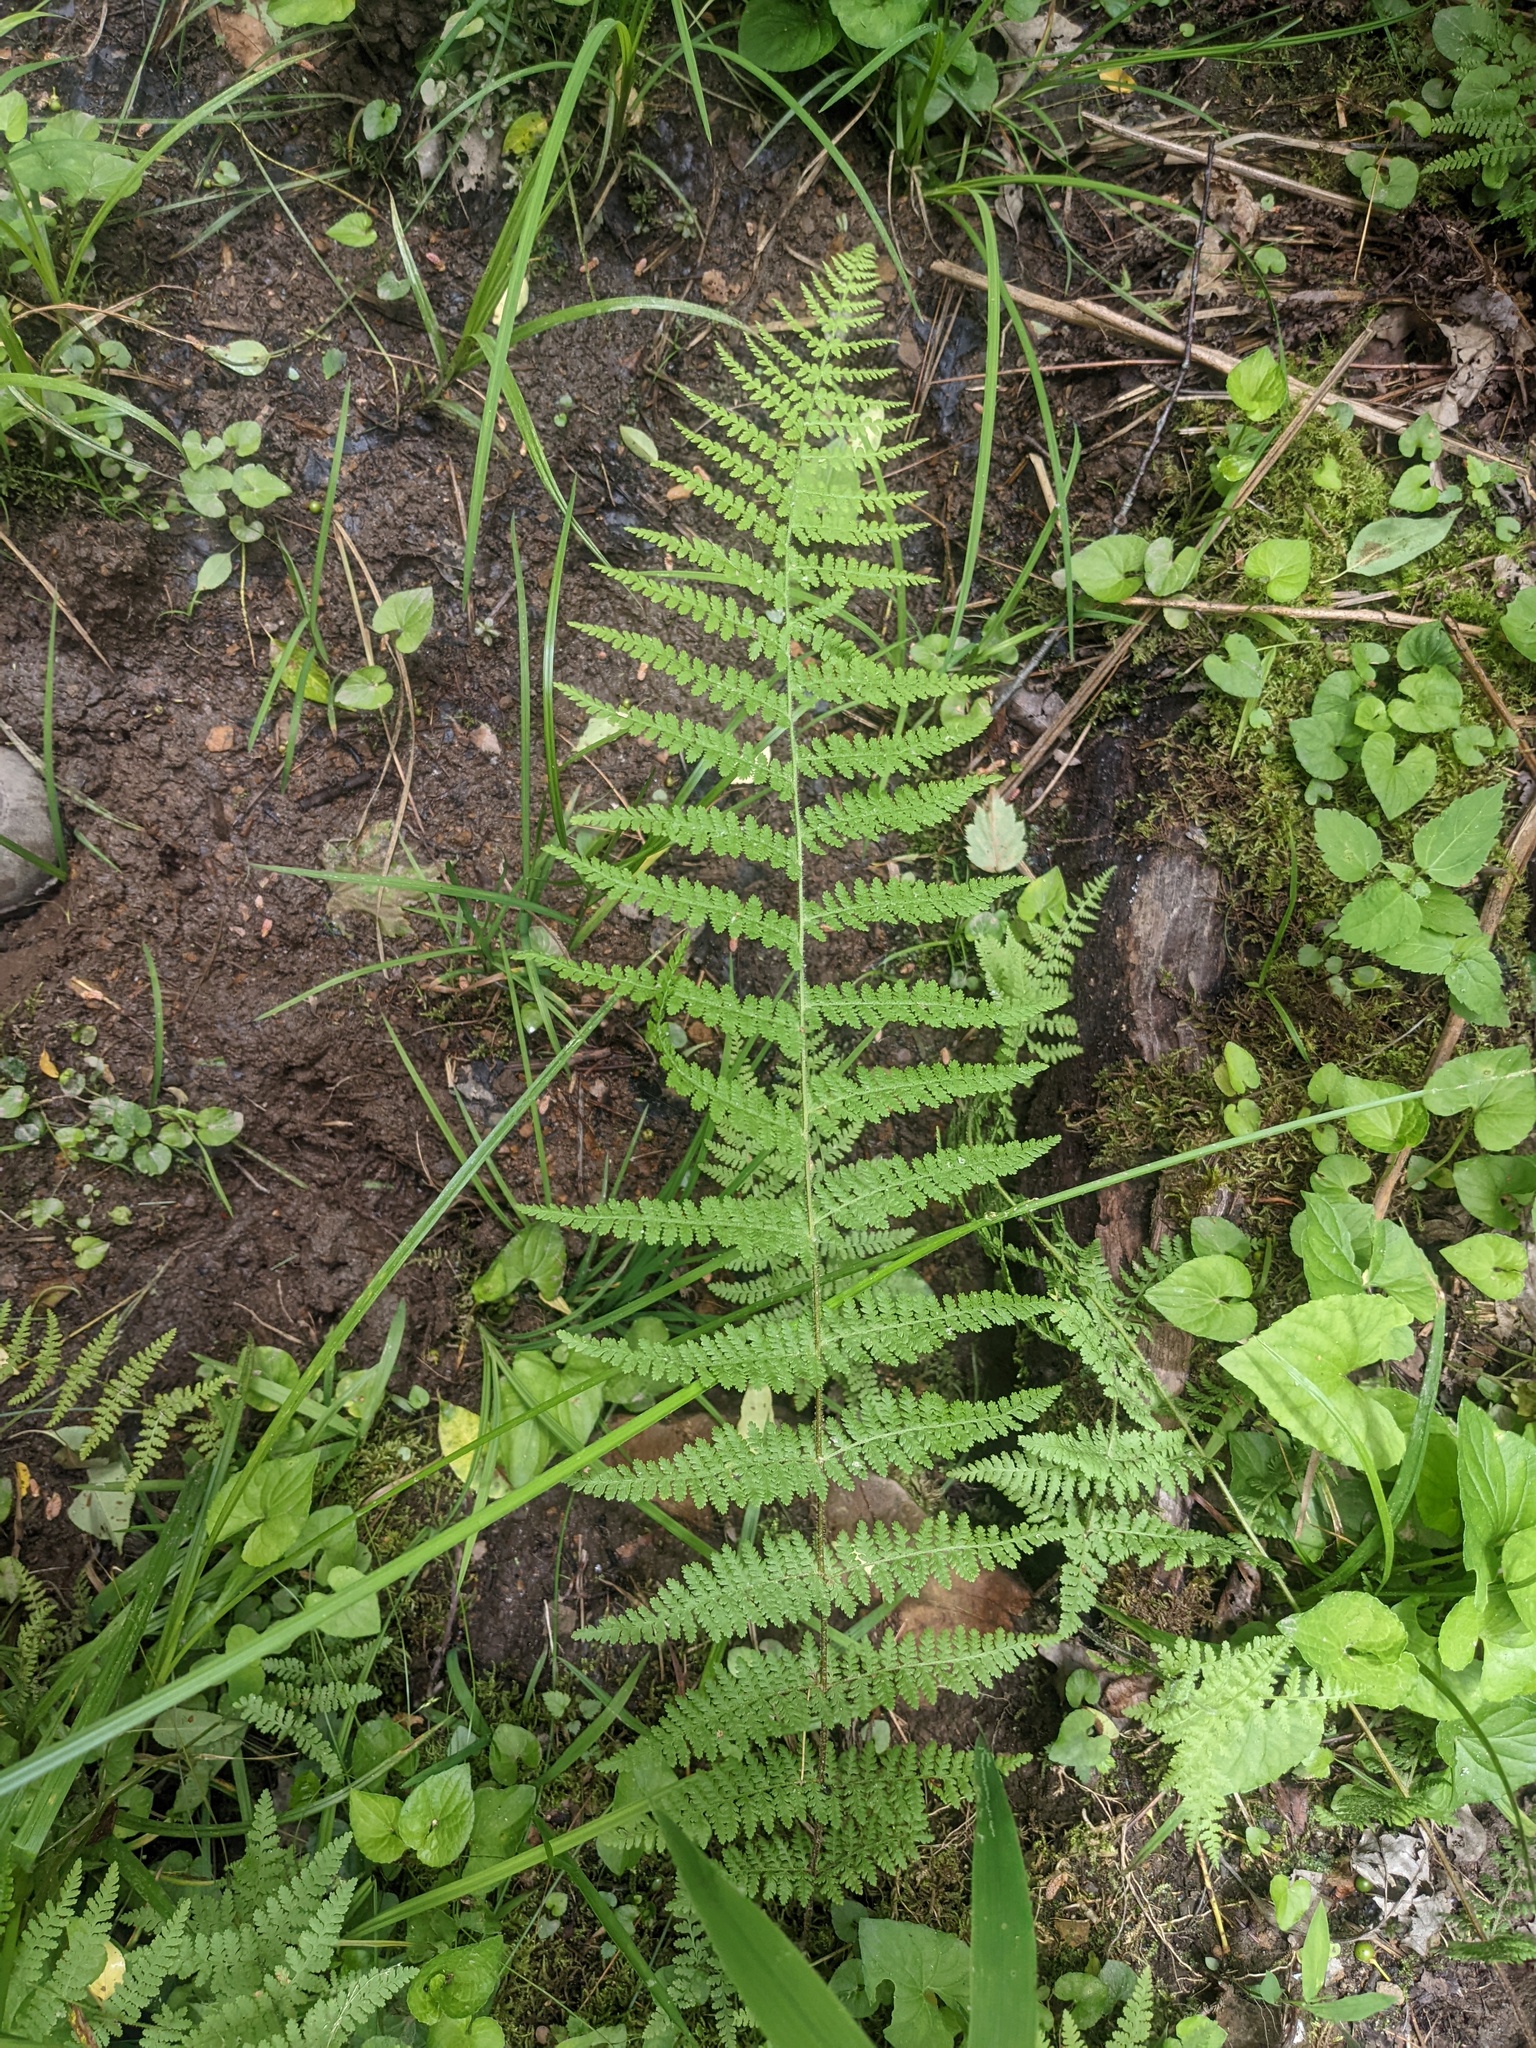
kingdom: Plantae
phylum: Tracheophyta
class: Polypodiopsida
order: Polypodiales
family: Dennstaedtiaceae
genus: Sitobolium
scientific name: Sitobolium punctilobum
